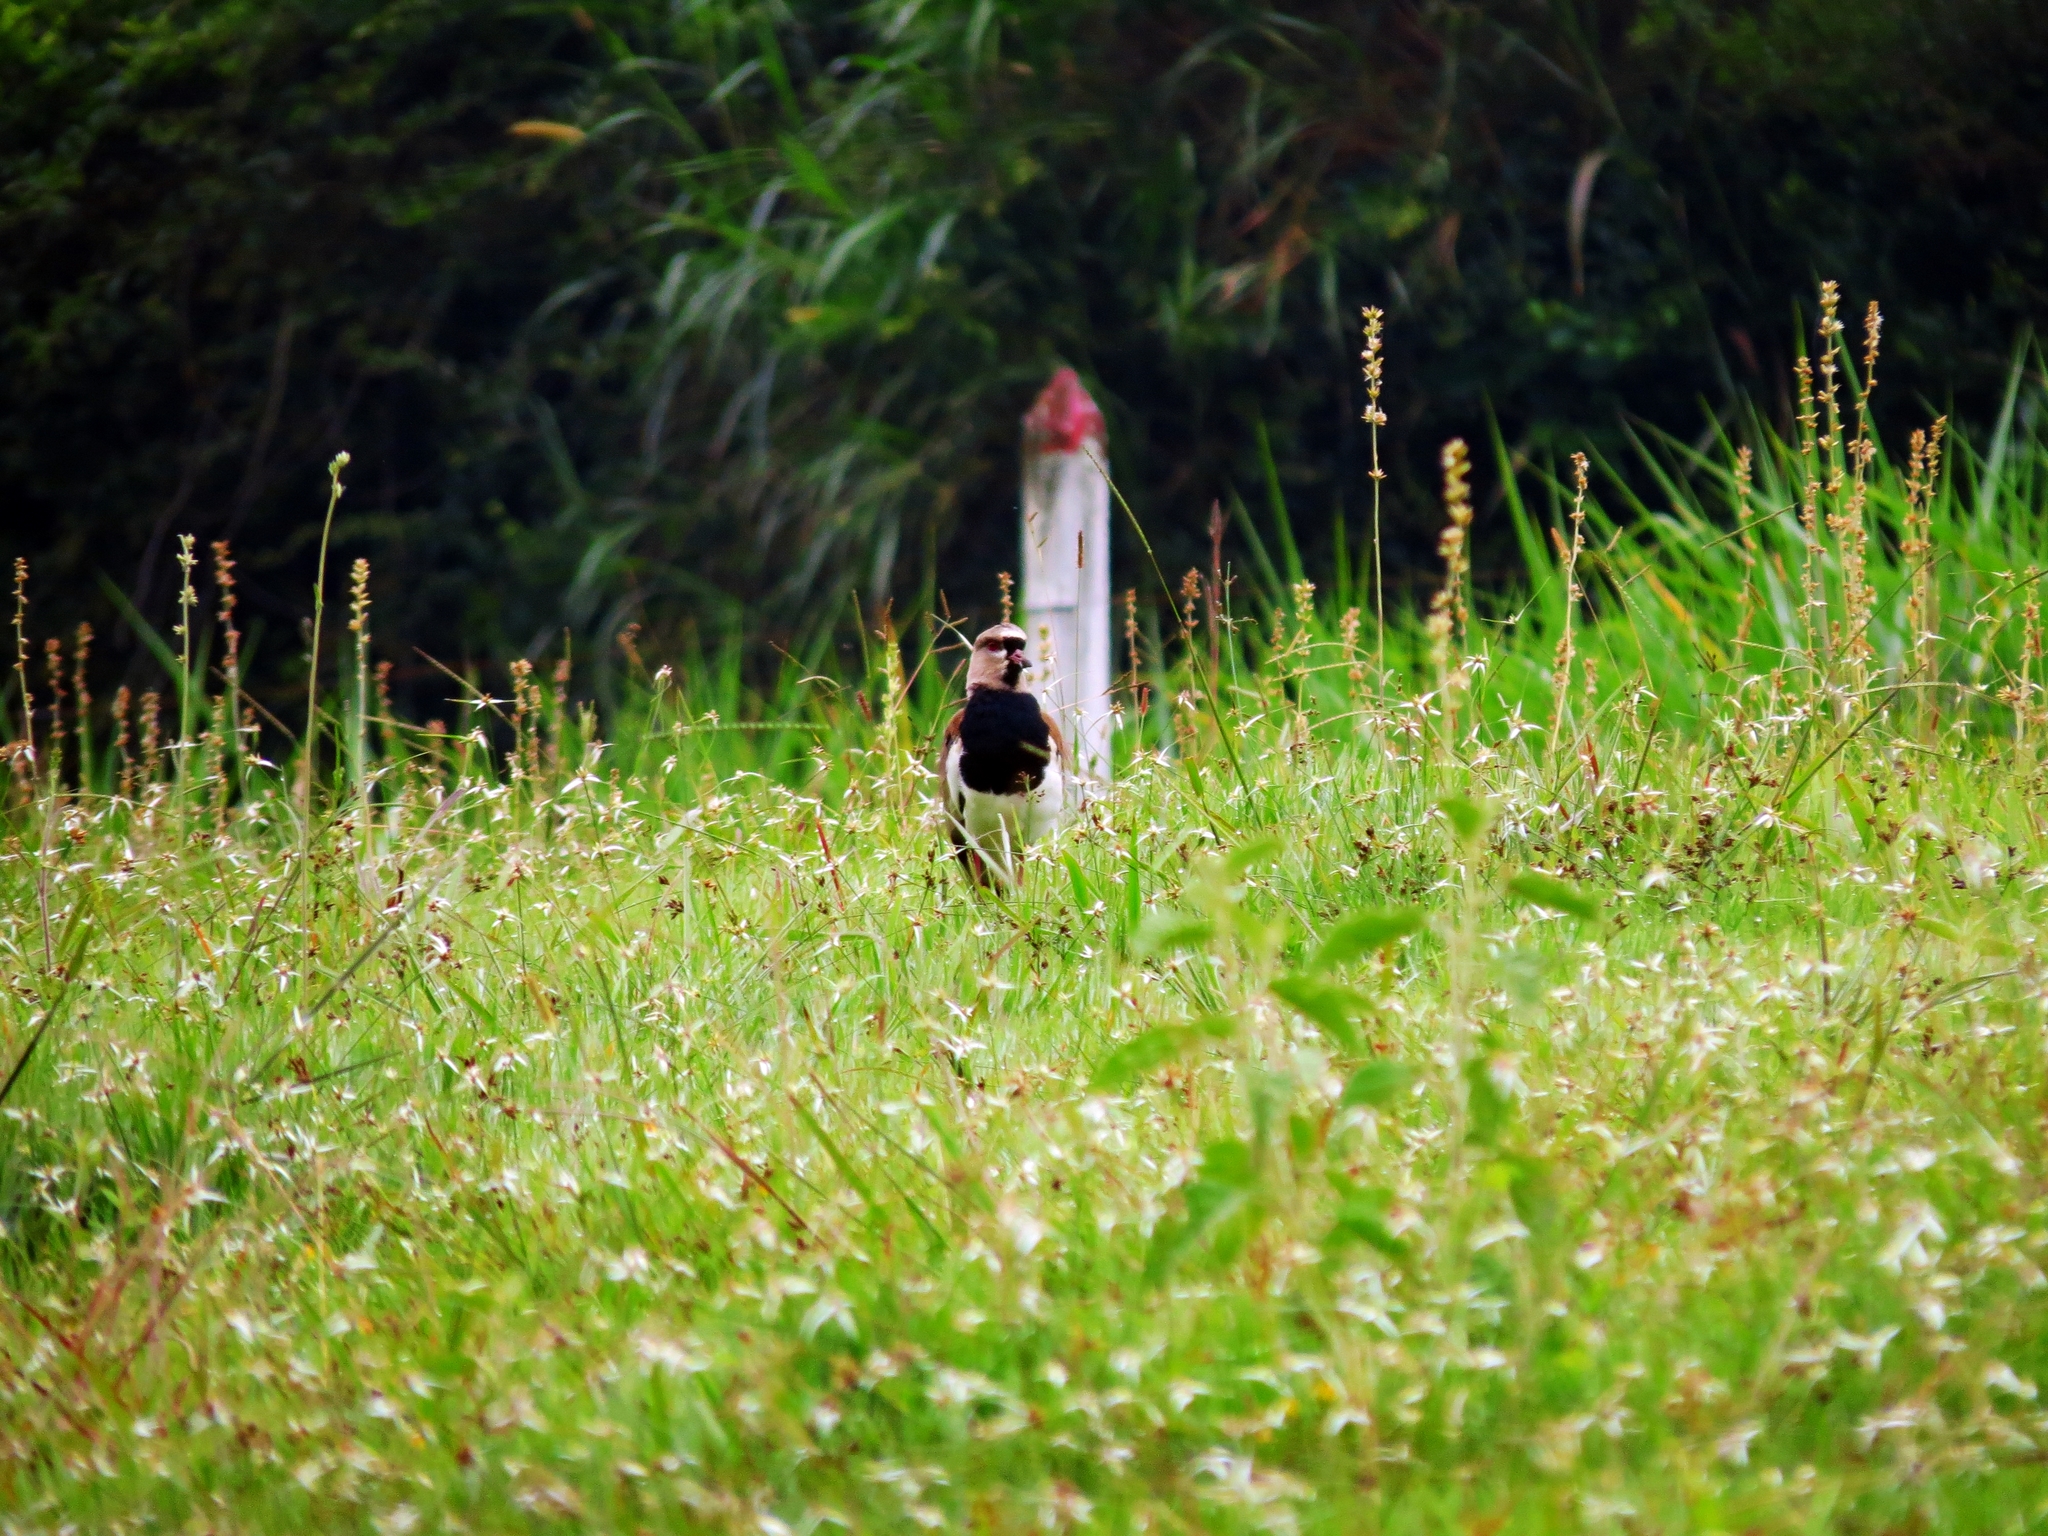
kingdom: Animalia
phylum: Chordata
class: Aves
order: Charadriiformes
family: Charadriidae
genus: Vanellus
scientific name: Vanellus chilensis
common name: Southern lapwing
